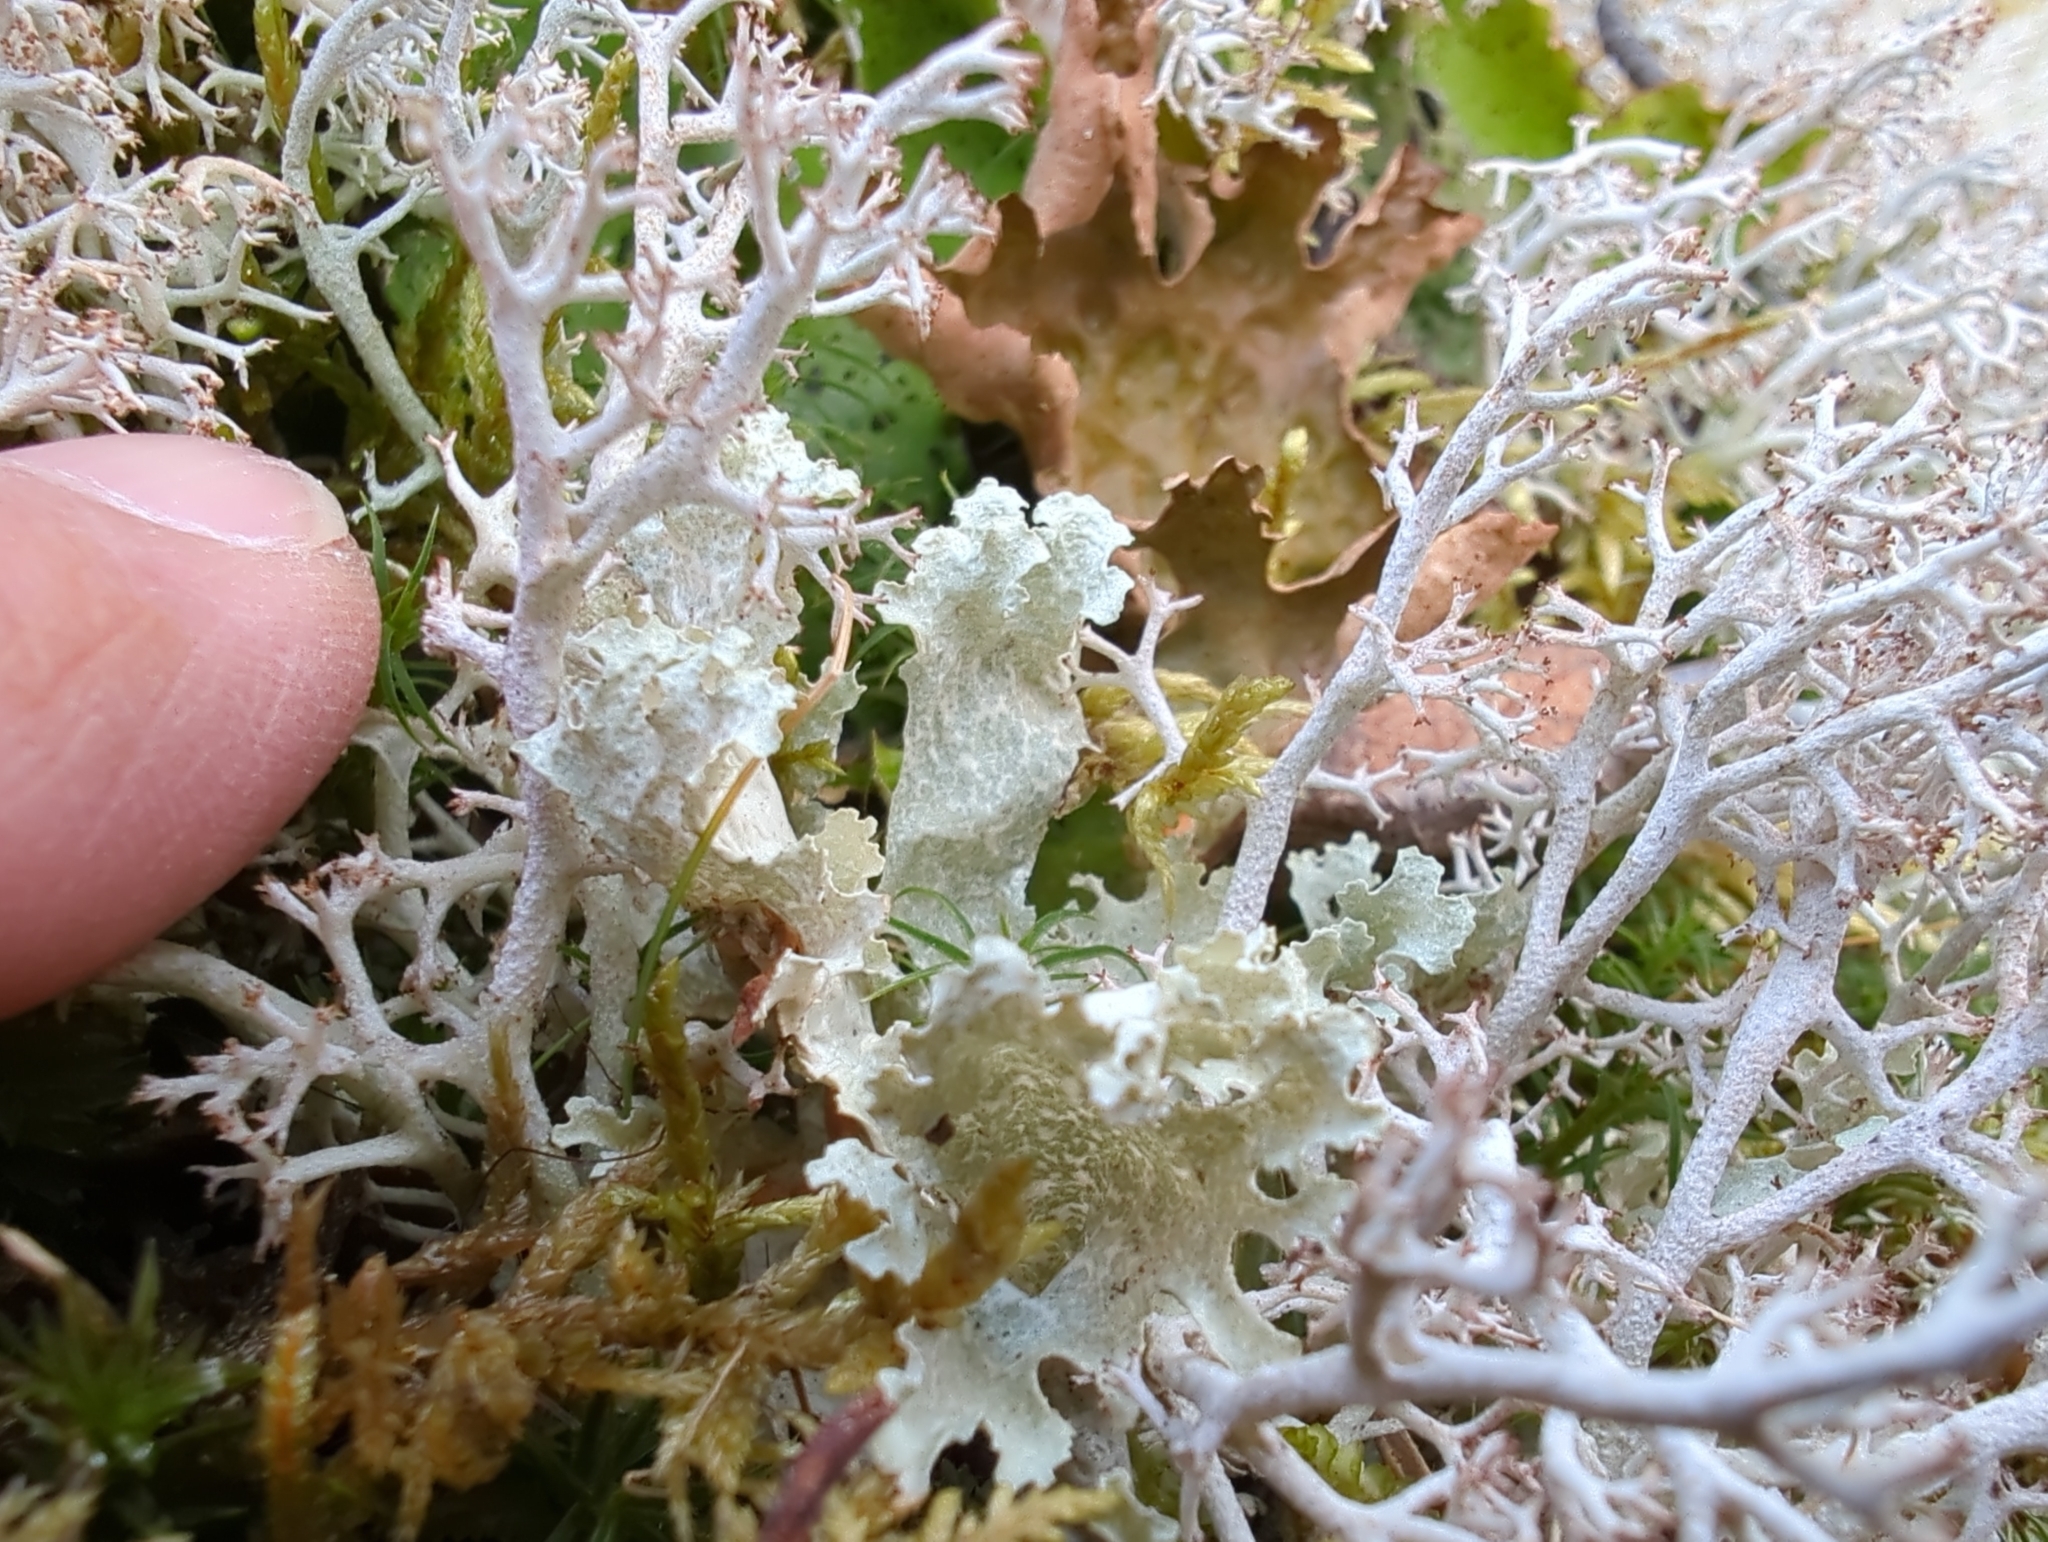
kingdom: Fungi
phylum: Ascomycota
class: Lecanoromycetes
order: Lecanorales
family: Parmeliaceae
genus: Nephromopsis
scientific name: Nephromopsis nivalis
